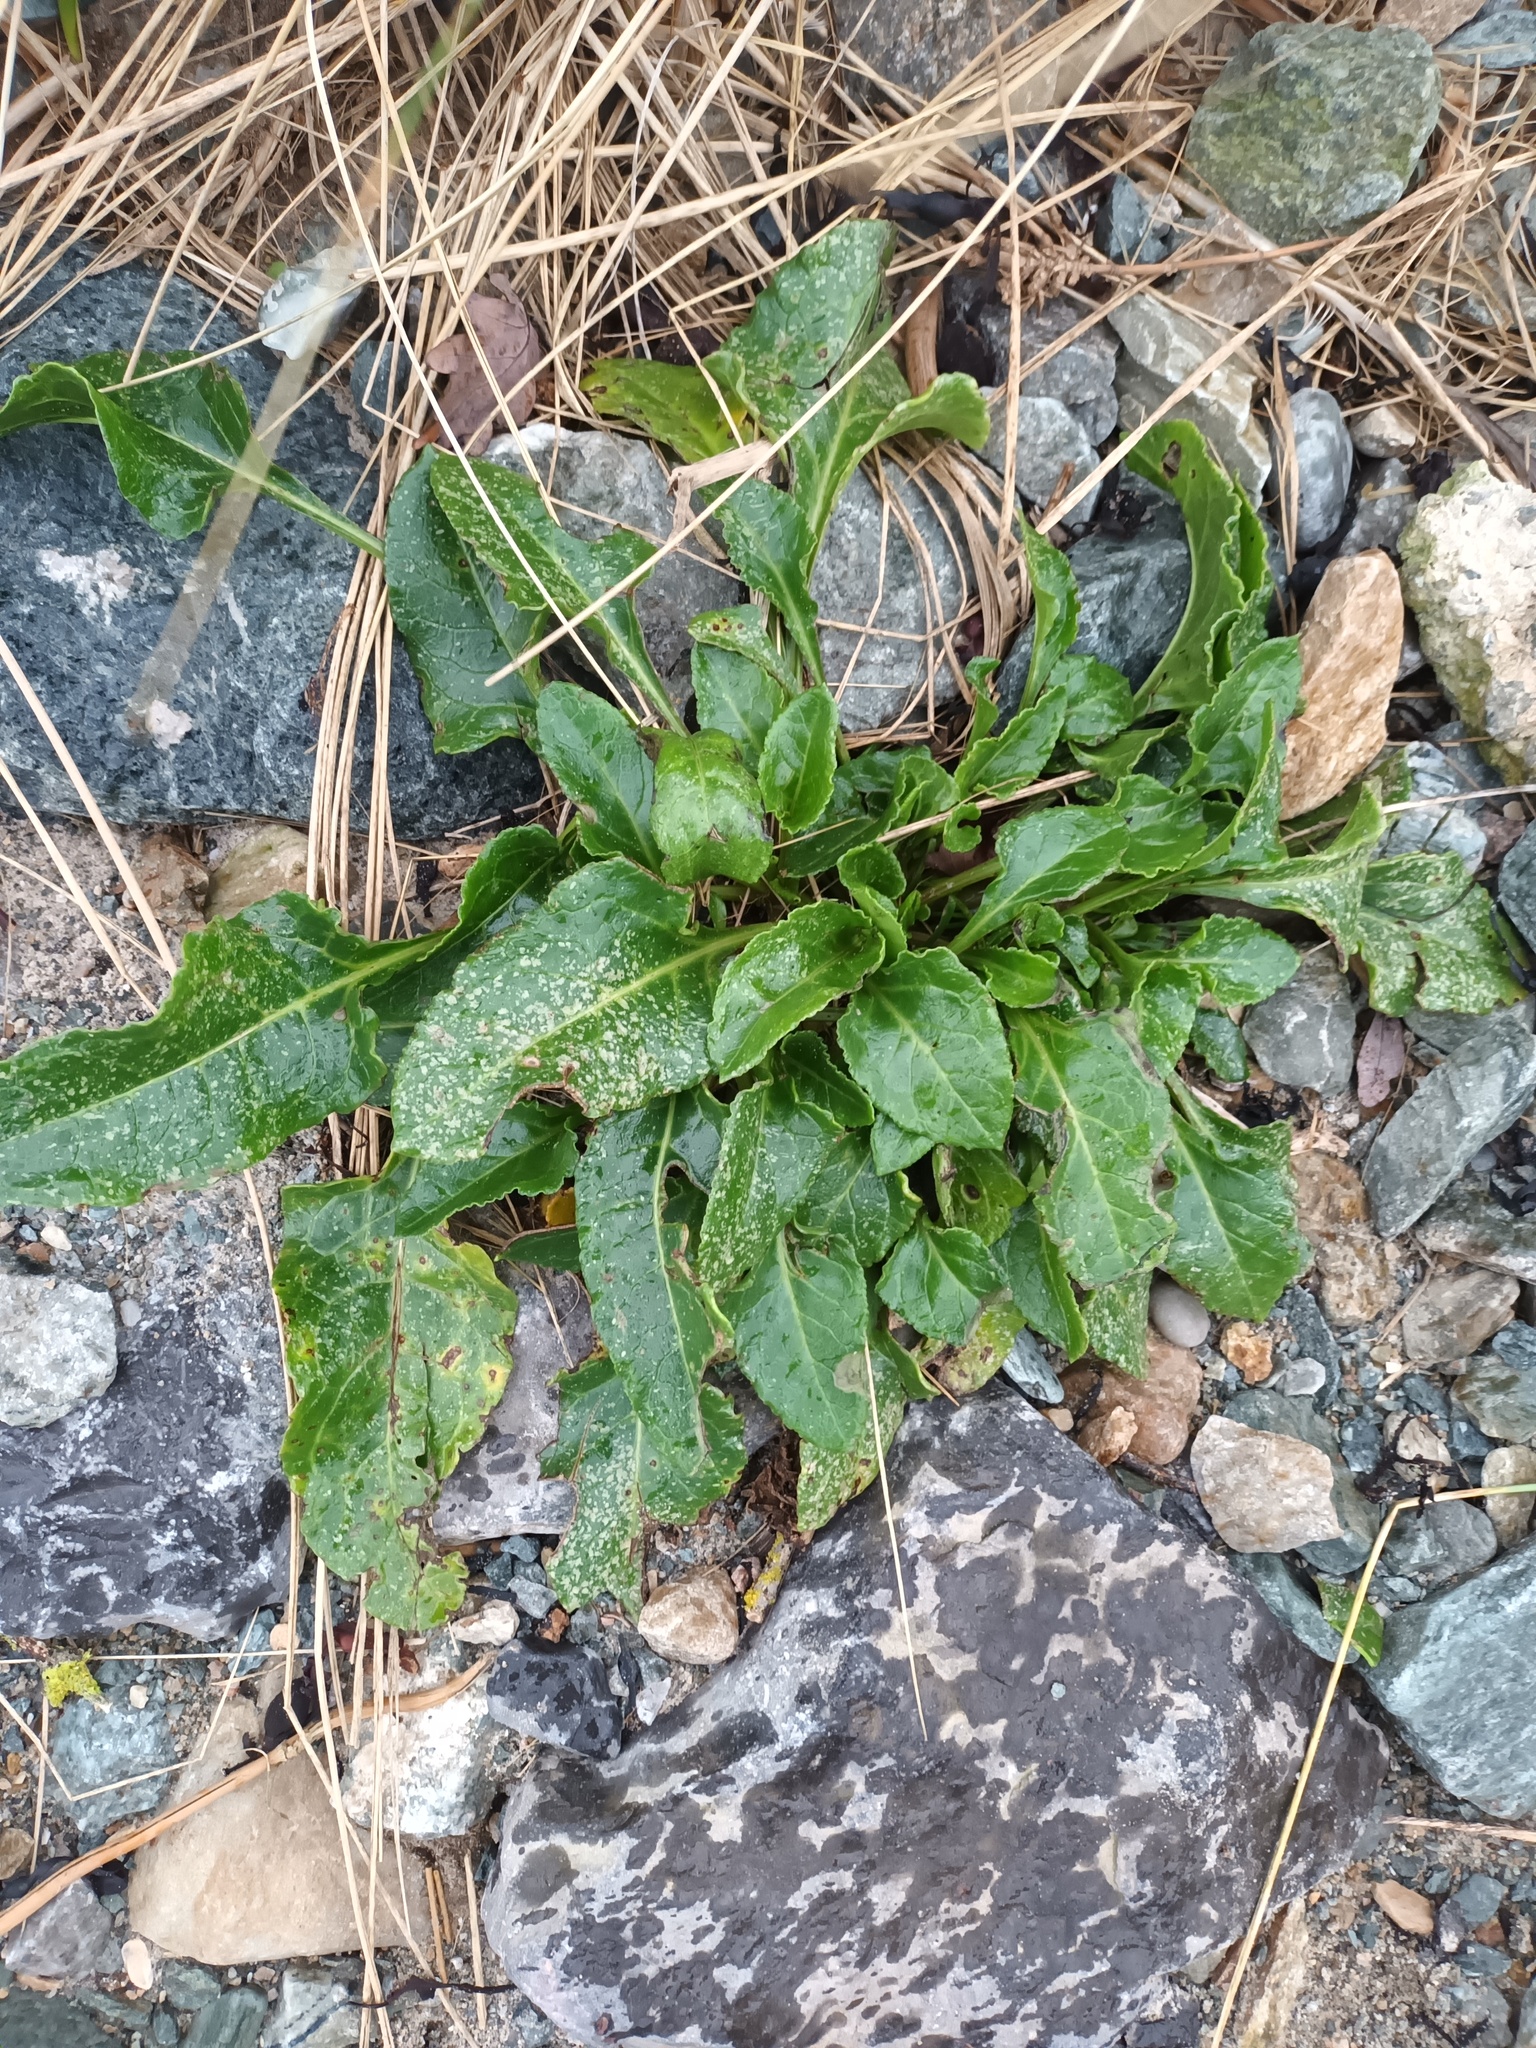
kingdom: Plantae
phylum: Tracheophyta
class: Magnoliopsida
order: Caryophyllales
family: Amaranthaceae
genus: Beta
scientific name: Beta vulgaris
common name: Beet
